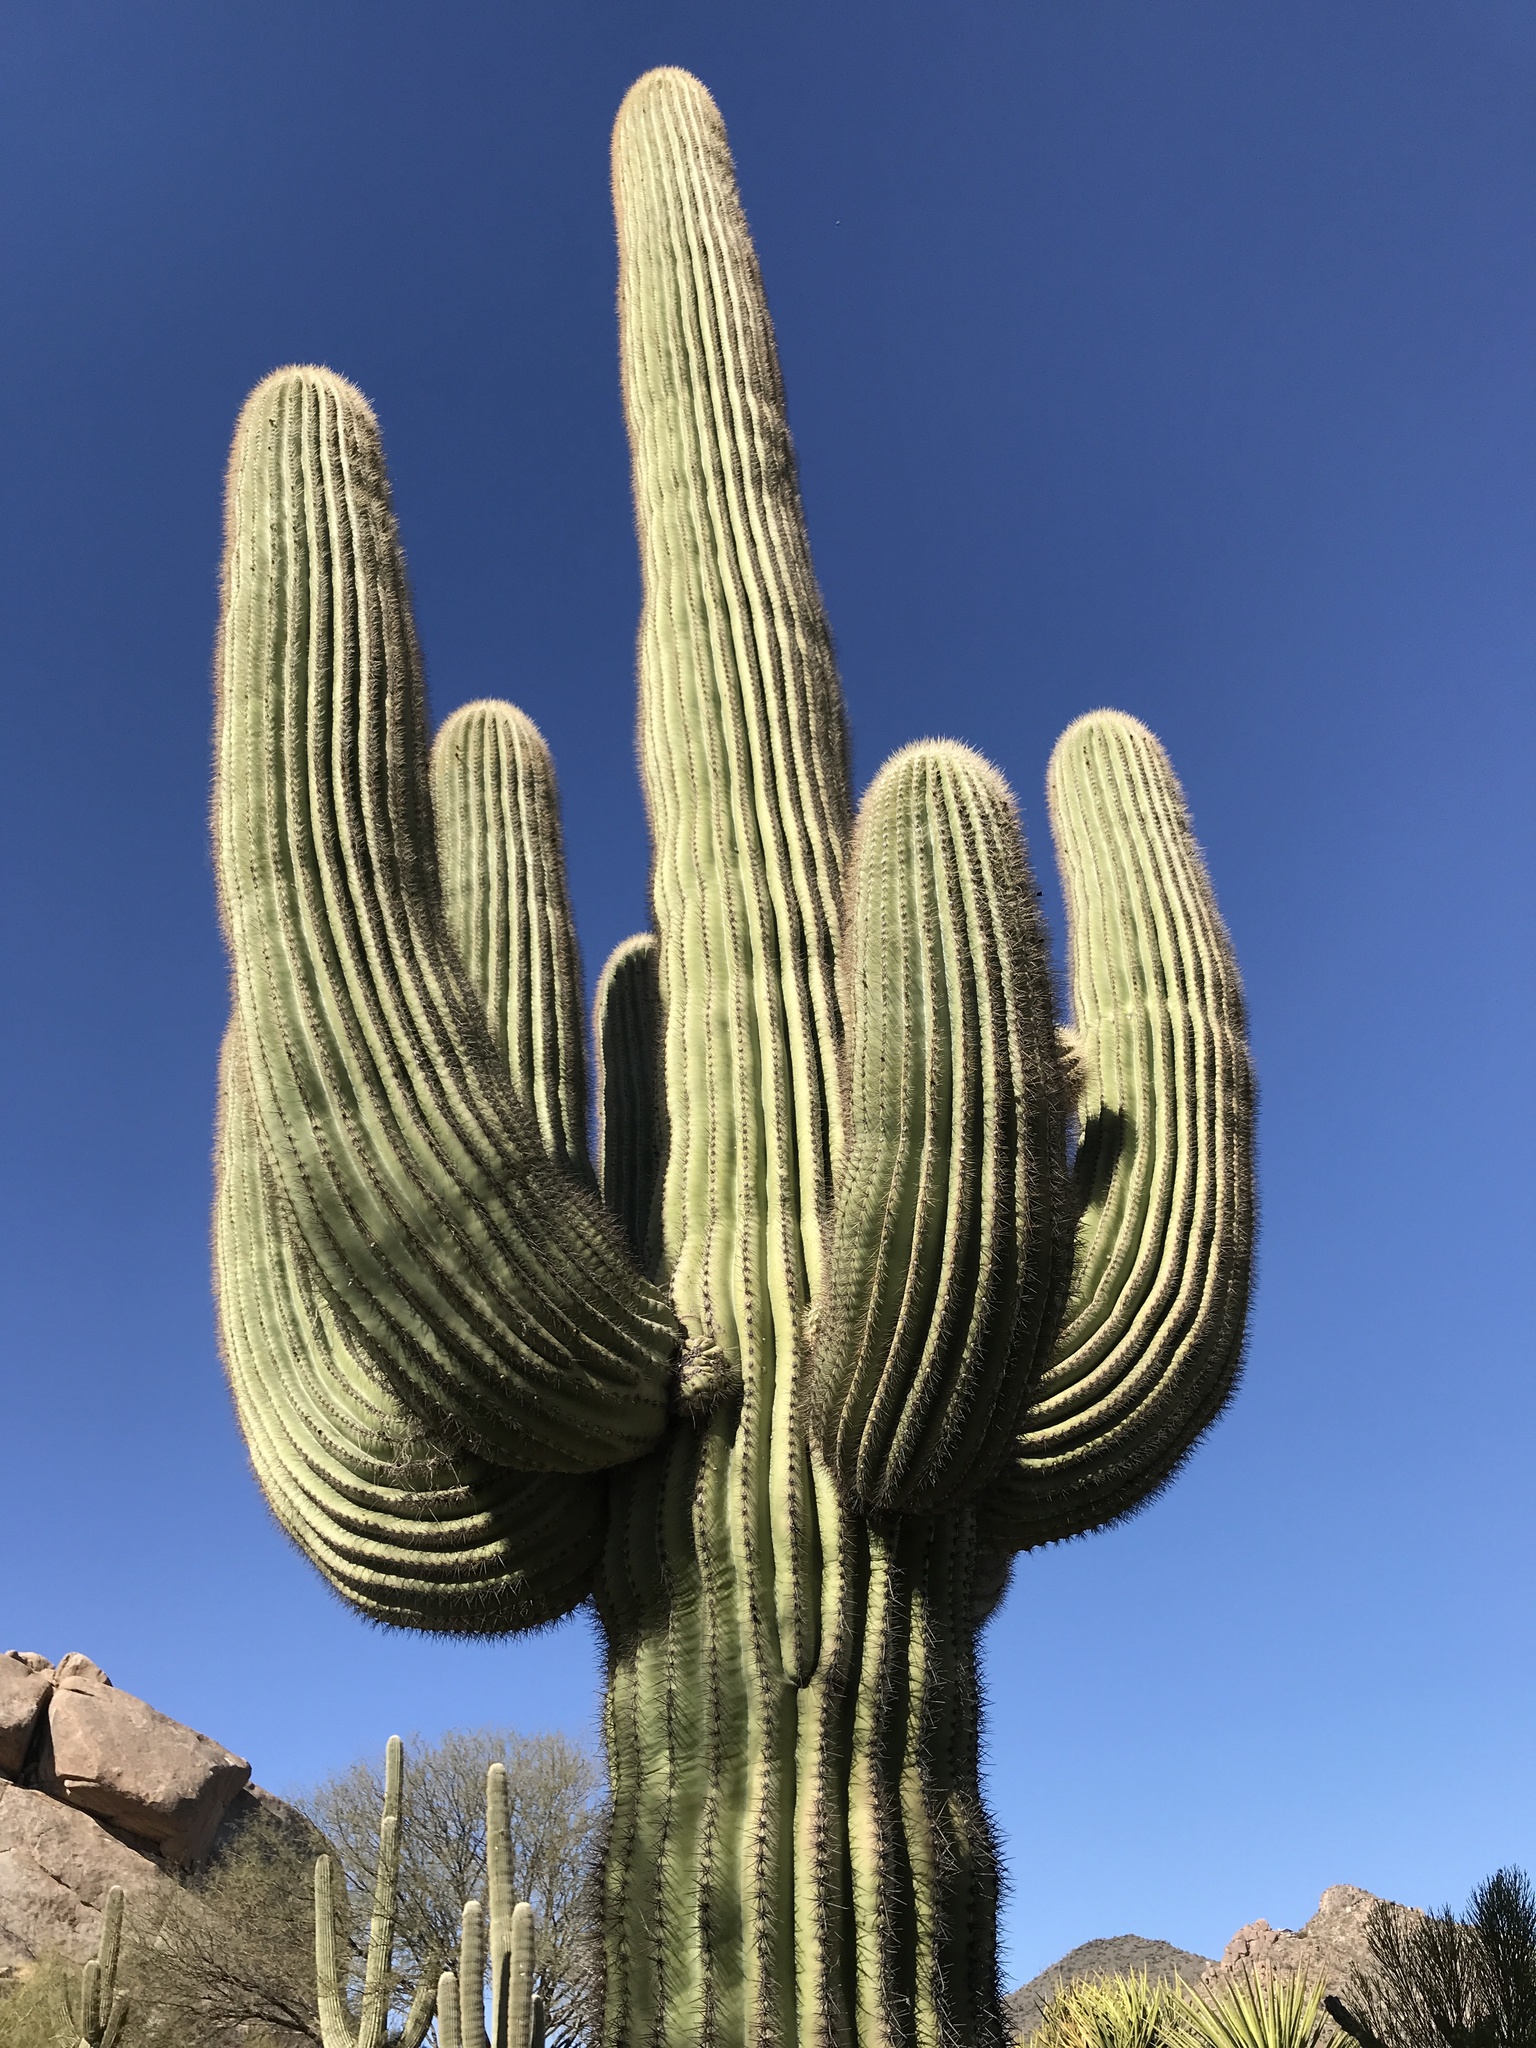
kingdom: Plantae
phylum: Tracheophyta
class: Magnoliopsida
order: Caryophyllales
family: Cactaceae
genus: Carnegiea
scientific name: Carnegiea gigantea
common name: Saguaro
